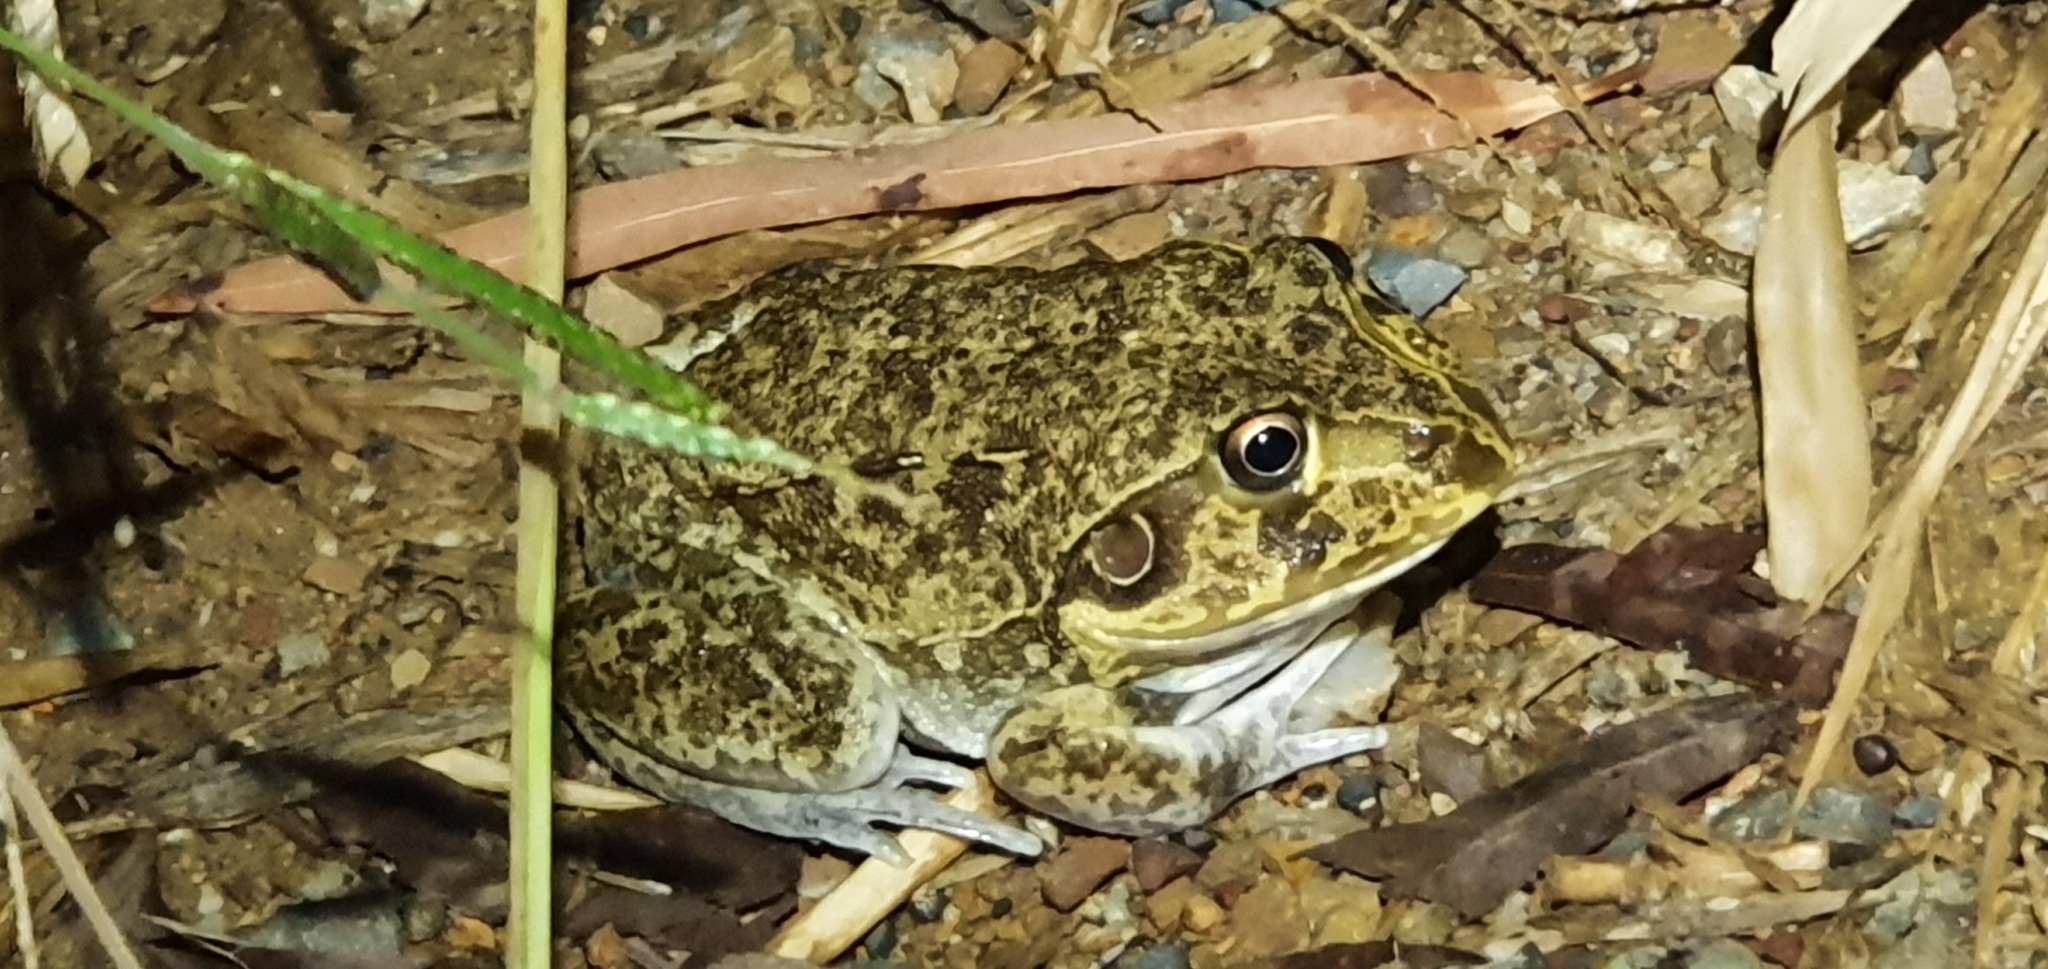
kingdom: Animalia
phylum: Chordata
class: Amphibia
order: Anura
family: Pelodryadidae
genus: Ranoidea
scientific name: Ranoidea novaehollandiae
